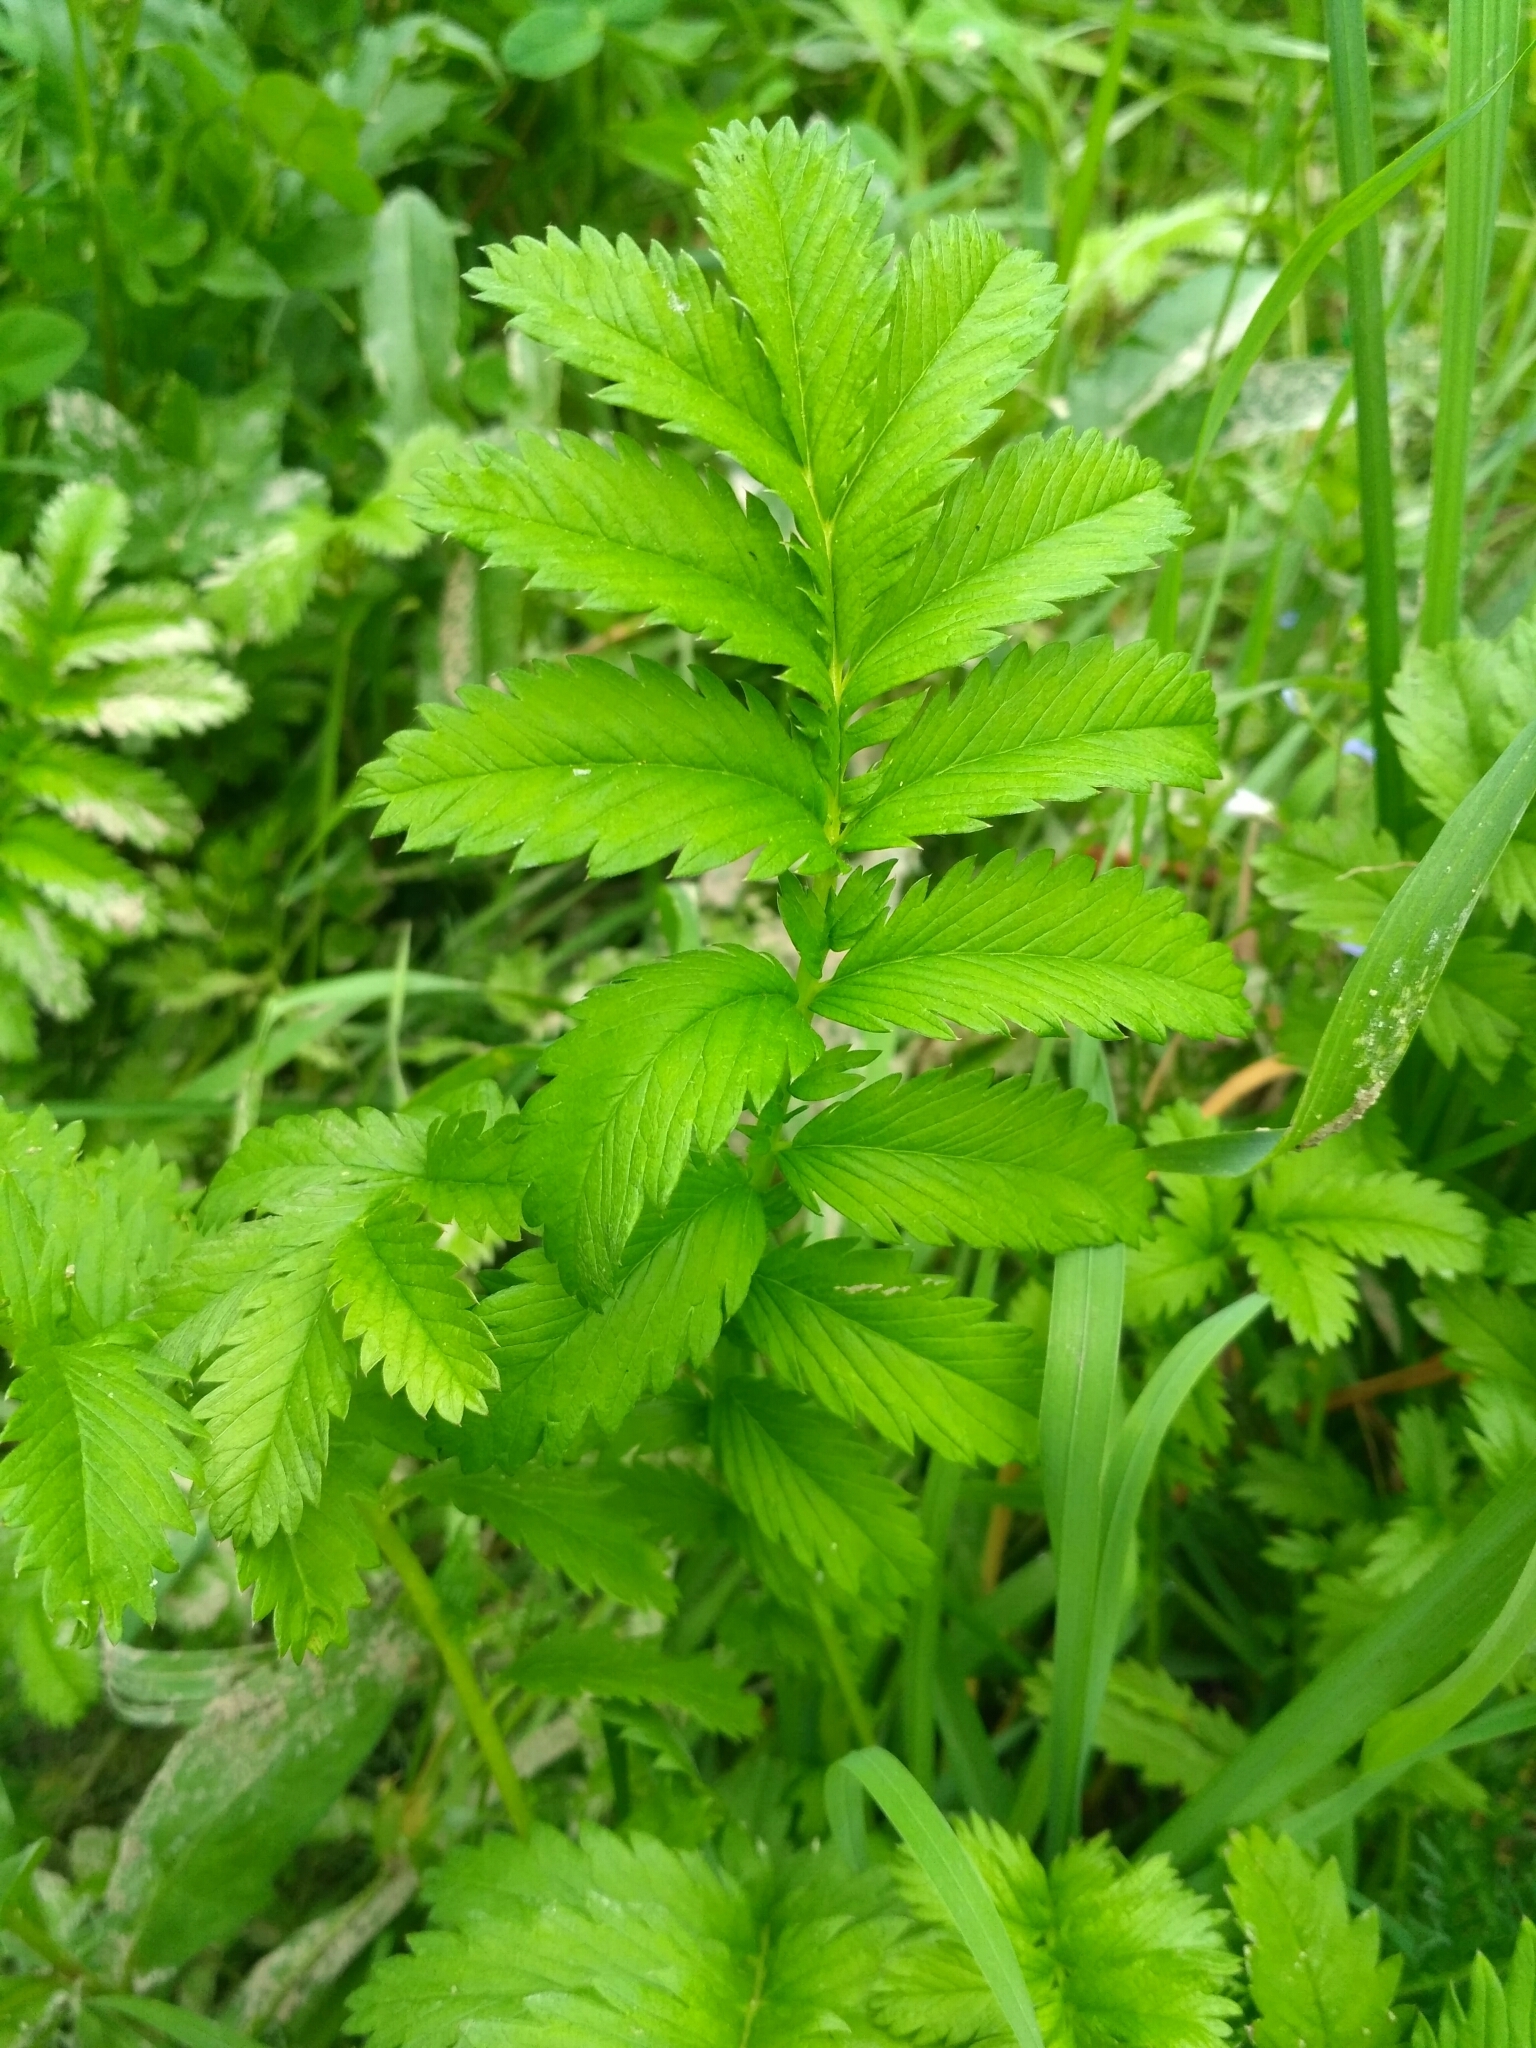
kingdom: Plantae
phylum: Tracheophyta
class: Magnoliopsida
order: Rosales
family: Rosaceae
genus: Argentina
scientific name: Argentina anserina
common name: Common silverweed
